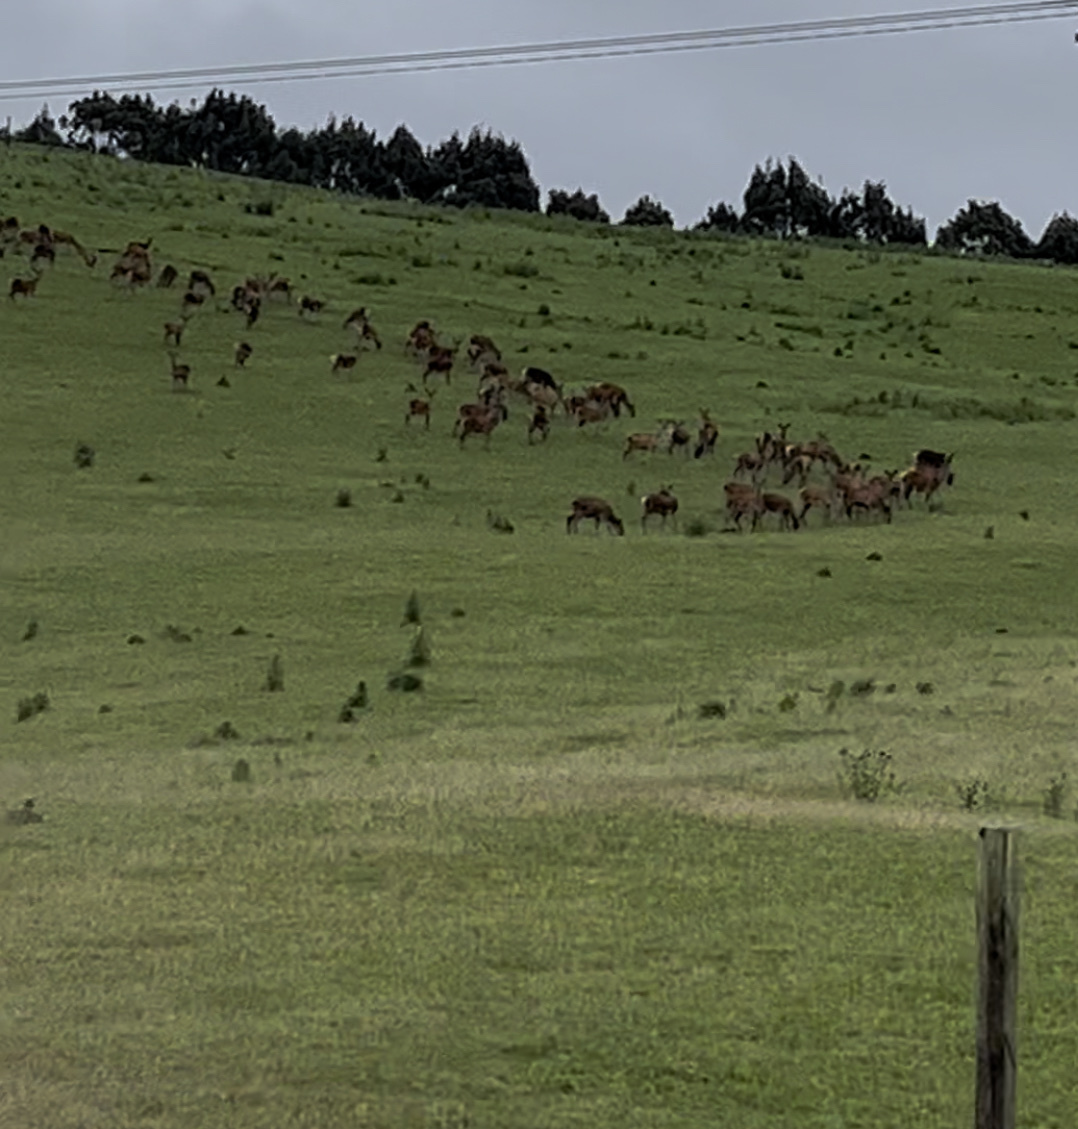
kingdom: Animalia
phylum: Chordata
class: Mammalia
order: Artiodactyla
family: Cervidae
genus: Cervus
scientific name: Cervus elaphus
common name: Red deer
